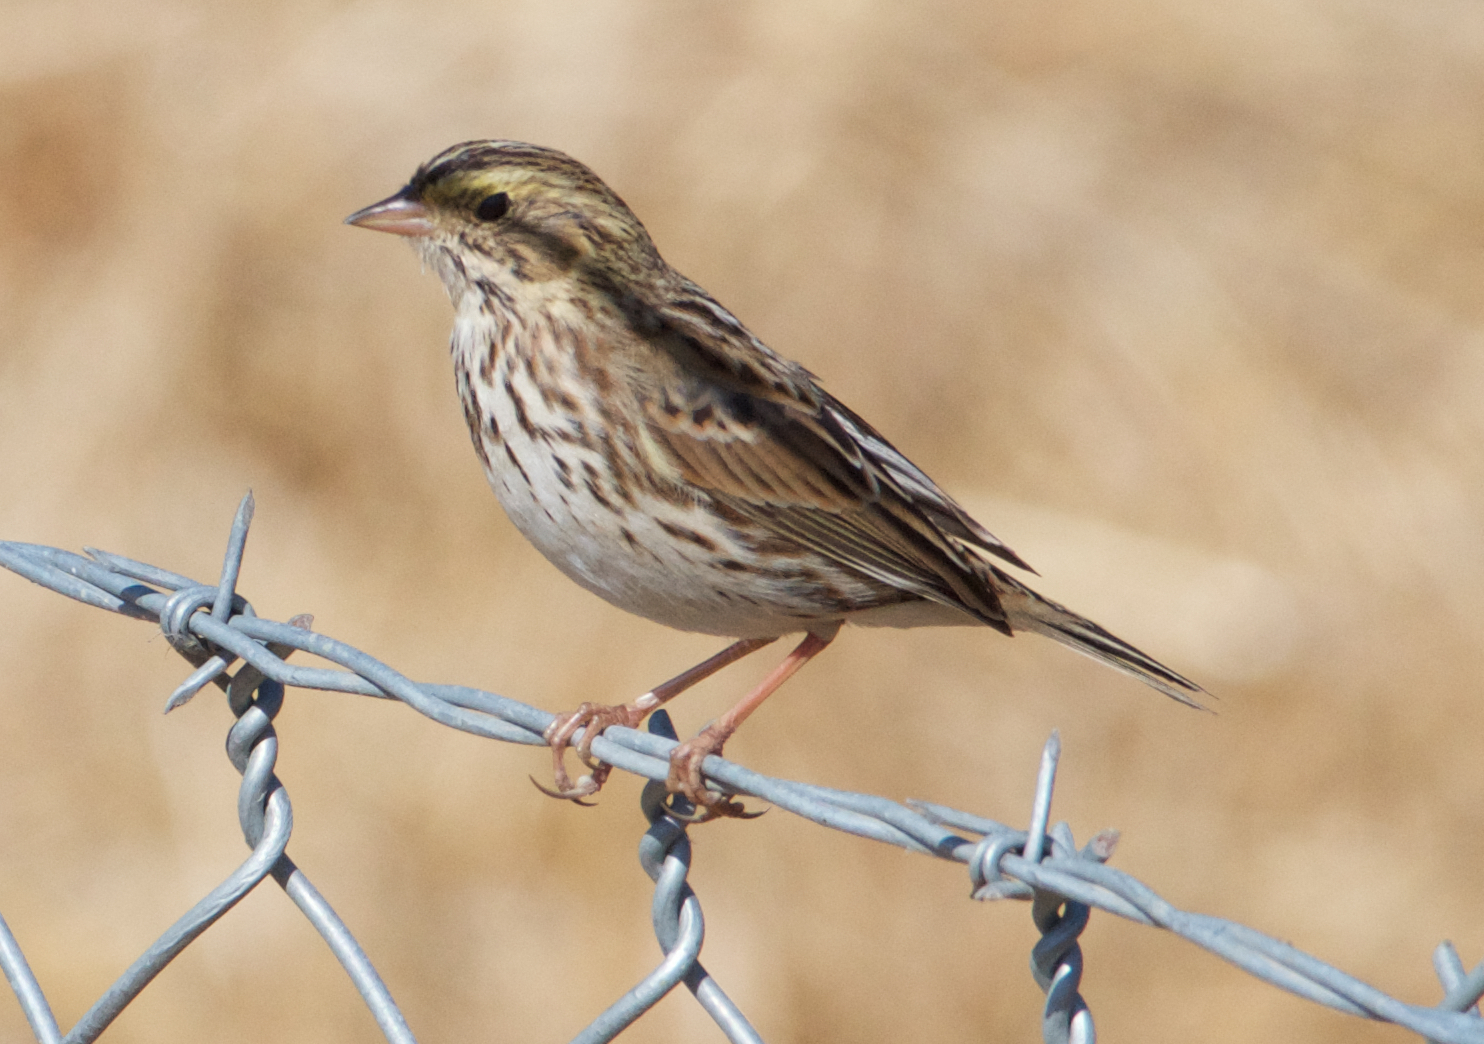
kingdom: Animalia
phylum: Chordata
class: Aves
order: Passeriformes
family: Passerellidae
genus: Passerculus
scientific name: Passerculus sandwichensis
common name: Savannah sparrow
